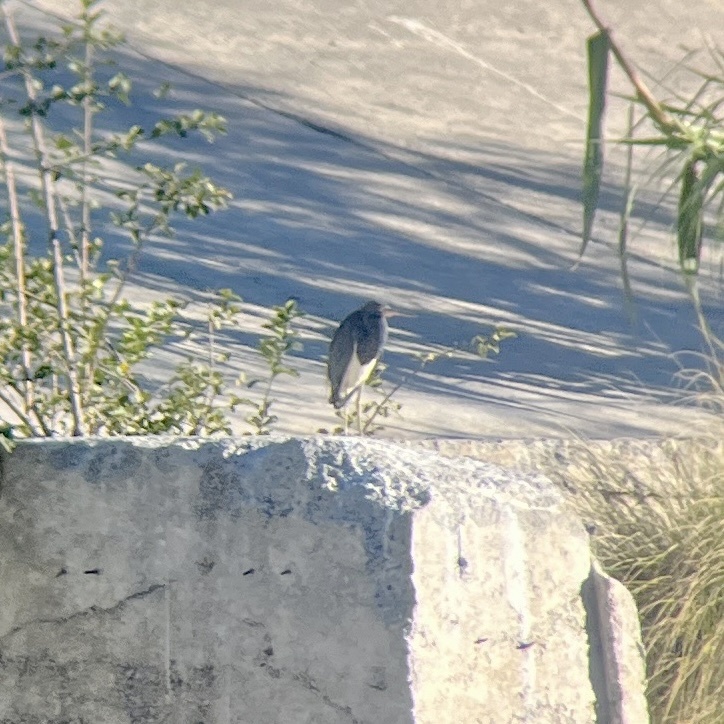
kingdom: Animalia
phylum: Chordata
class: Aves
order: Pelecaniformes
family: Ardeidae
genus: Egretta
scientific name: Egretta tricolor
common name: Tricolored heron
